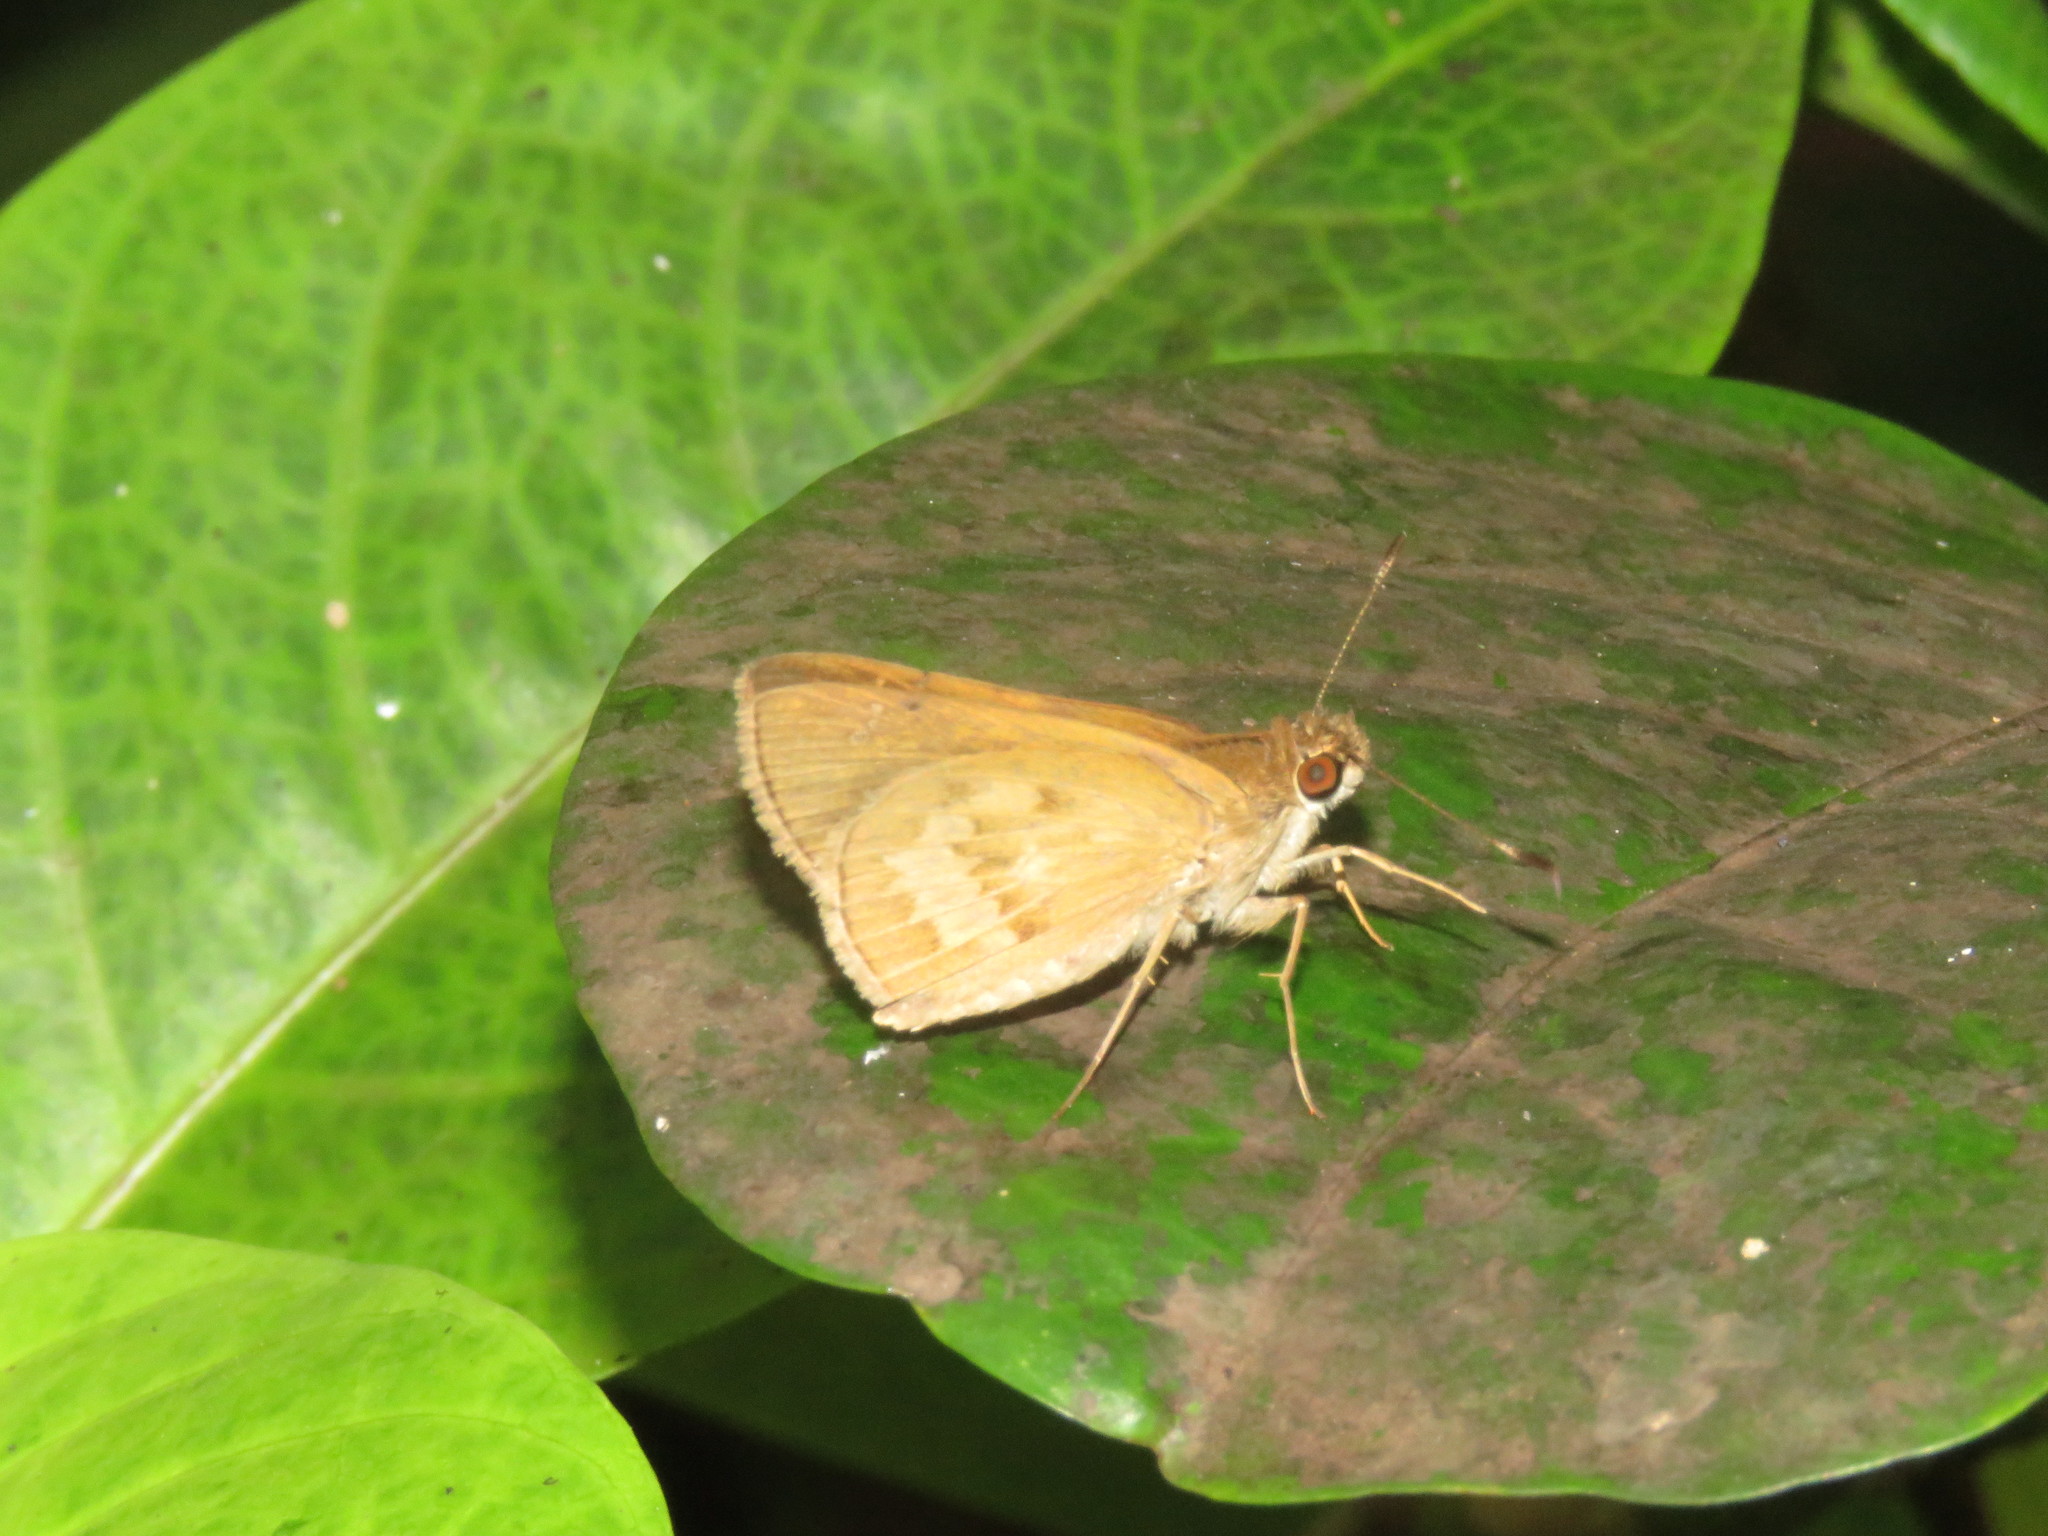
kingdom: Animalia
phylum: Arthropoda
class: Insecta
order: Lepidoptera
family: Hesperiidae
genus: Callimormus
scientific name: Callimormus saturnus
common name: Saturnus skipper
